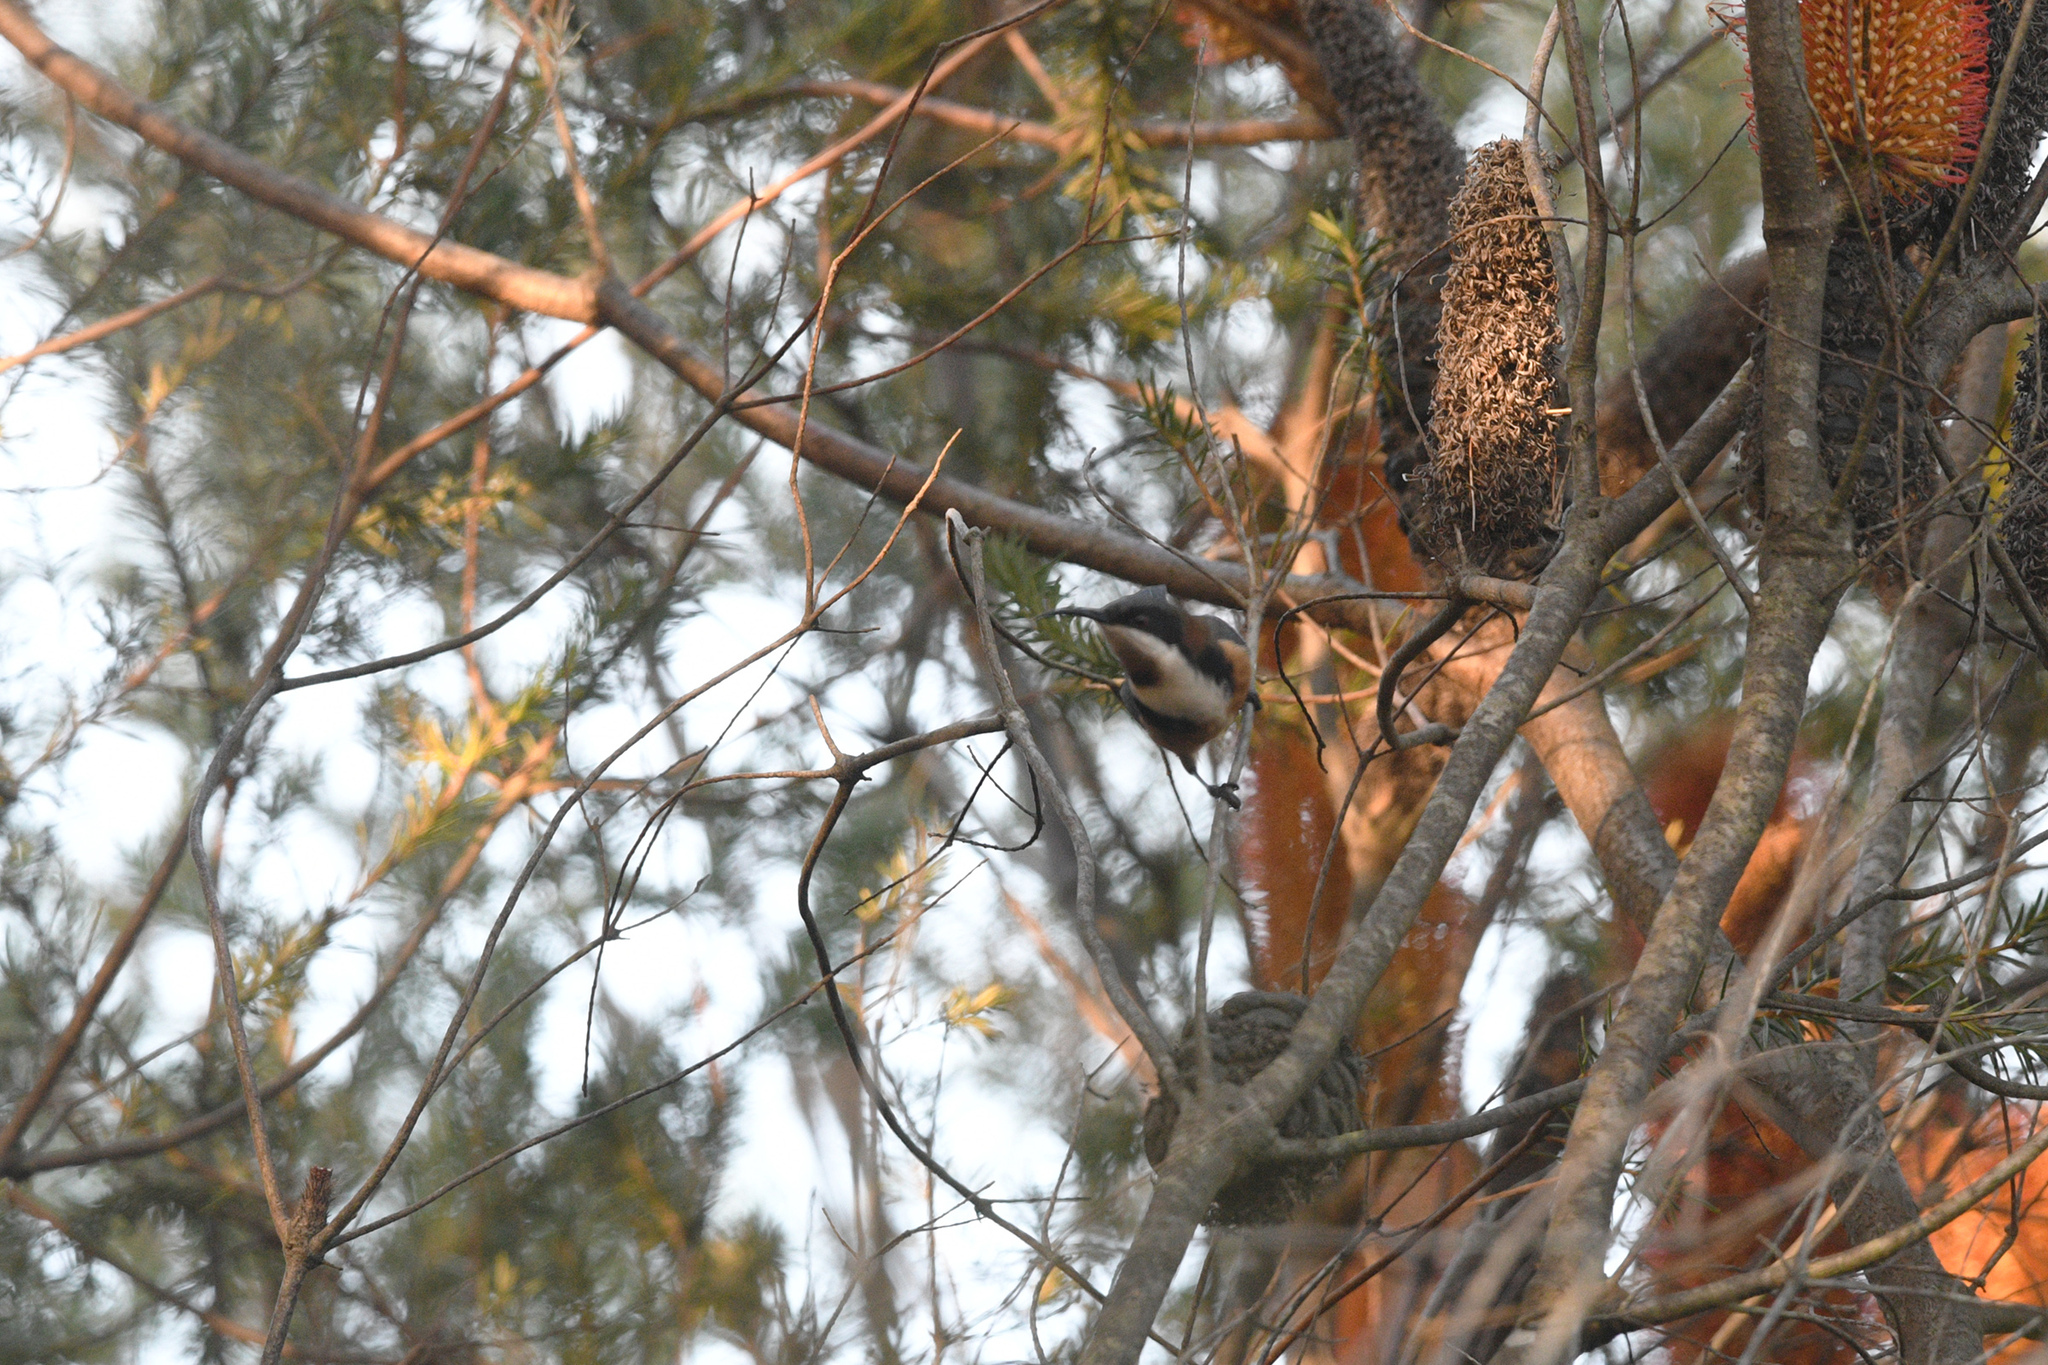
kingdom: Animalia
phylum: Chordata
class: Aves
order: Passeriformes
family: Meliphagidae
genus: Acanthorhynchus
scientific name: Acanthorhynchus tenuirostris
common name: Eastern spinebill
